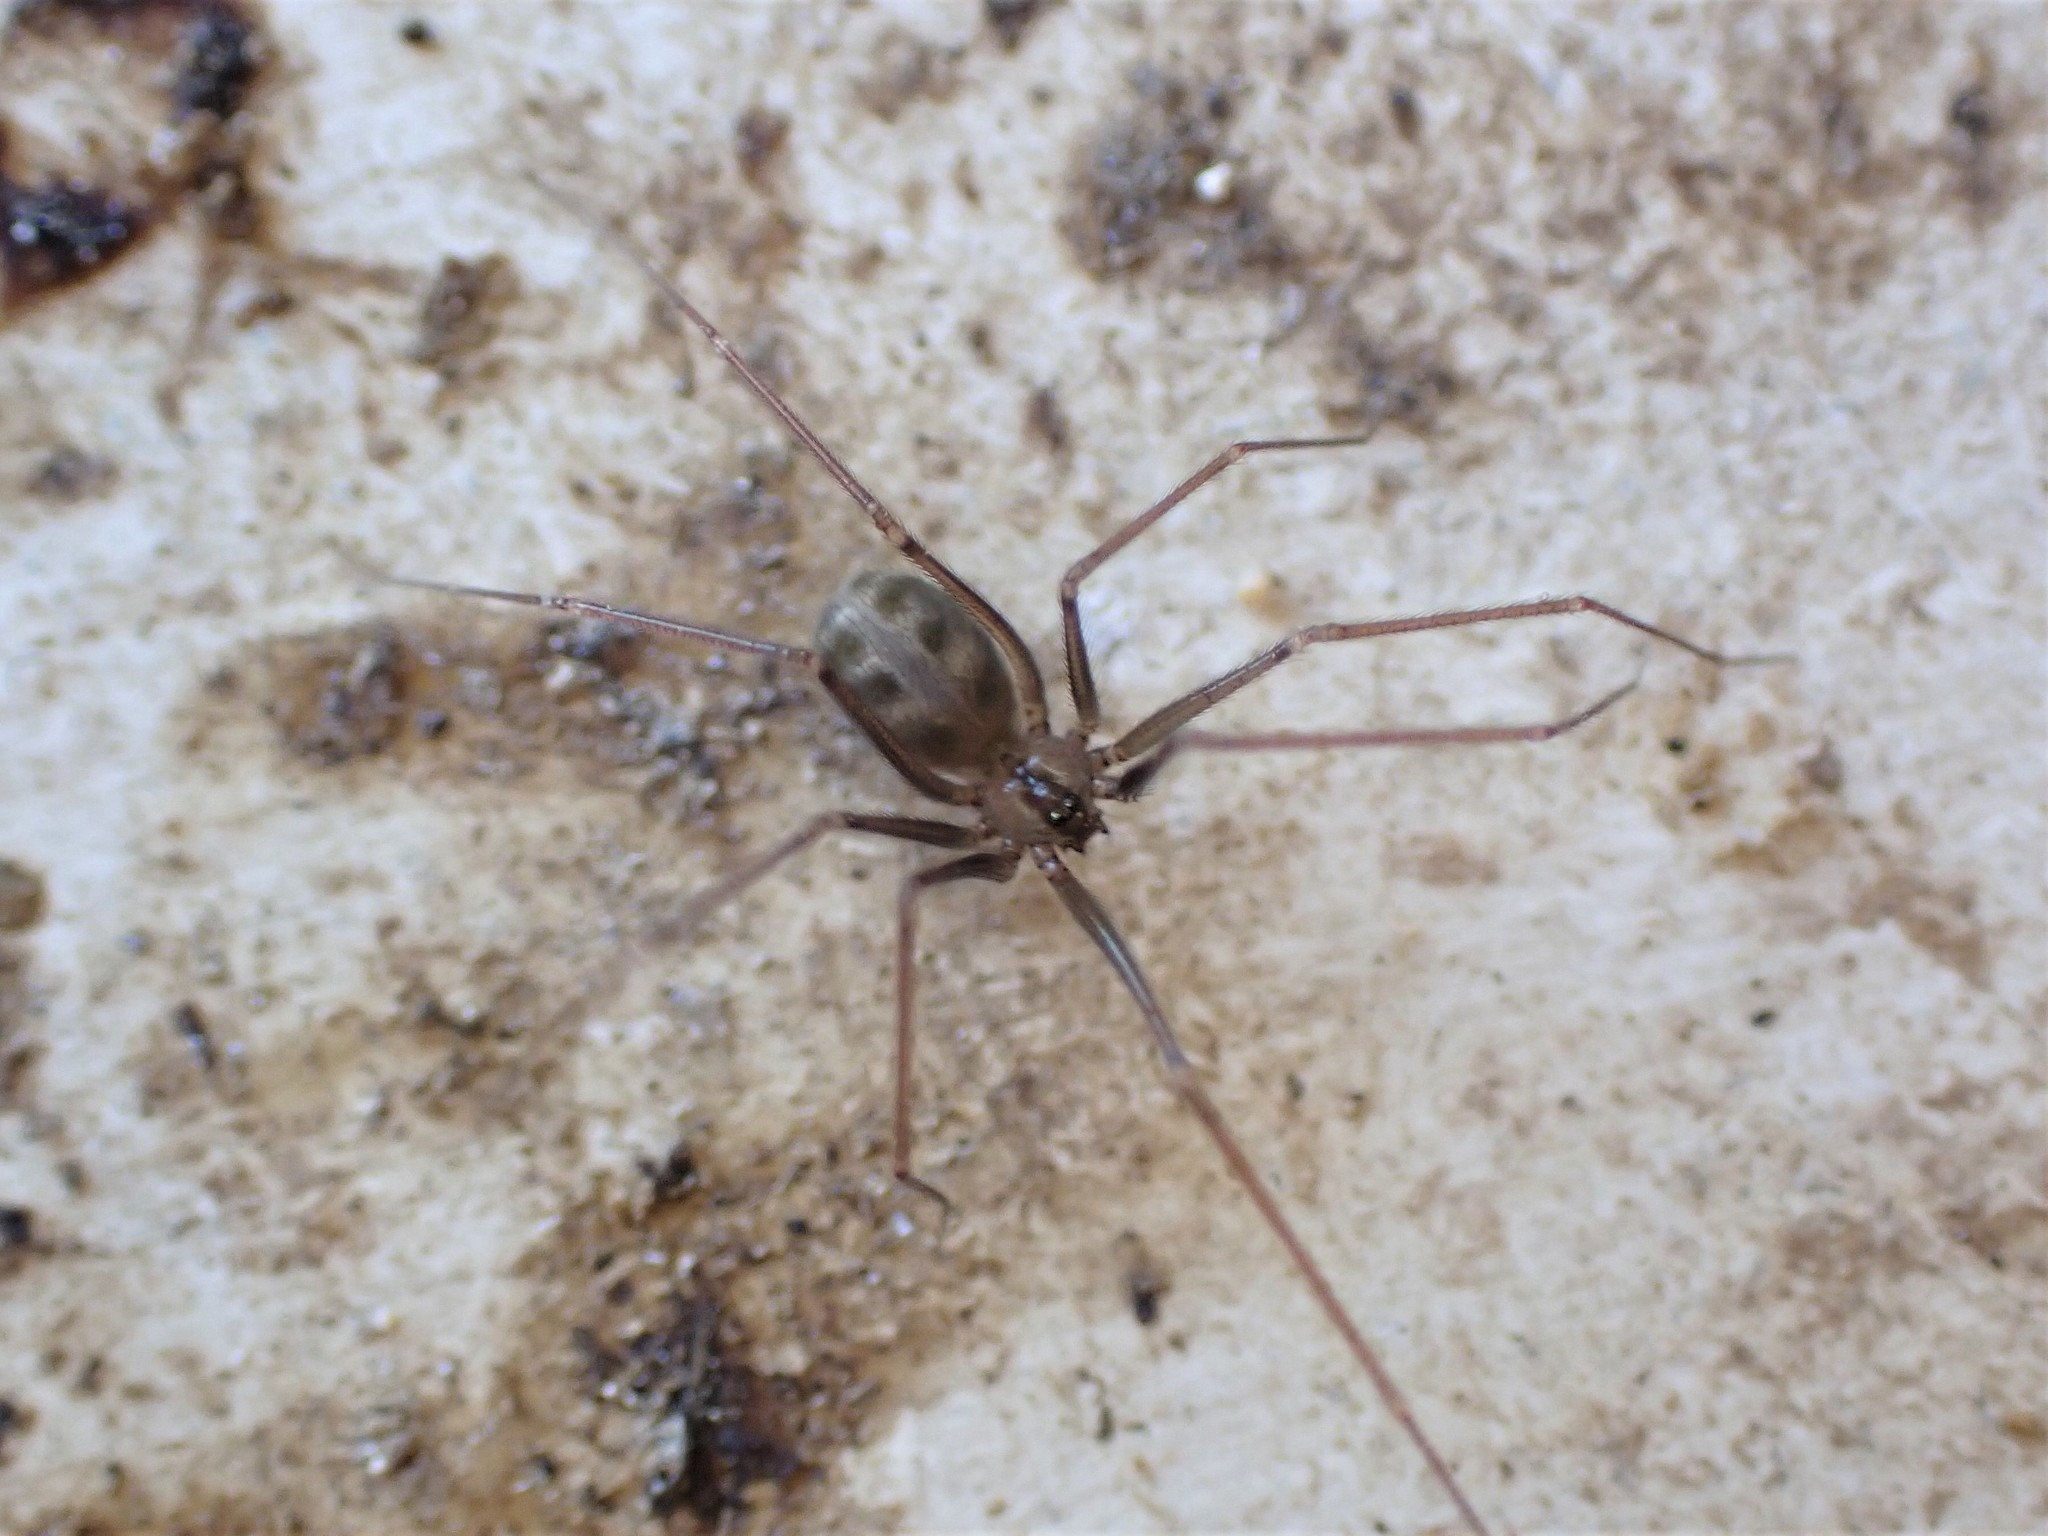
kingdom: Animalia
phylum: Arthropoda
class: Arachnida
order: Araneae
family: Pholcidae
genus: Psilochorus
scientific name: Psilochorus simoni
